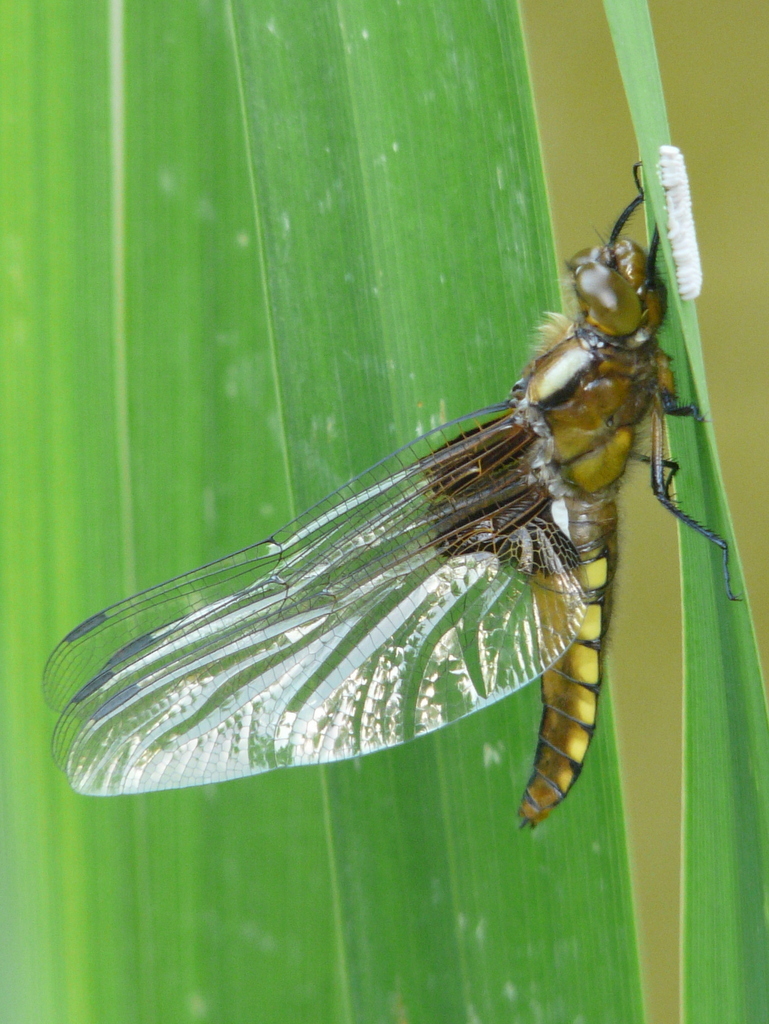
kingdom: Animalia
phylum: Arthropoda
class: Insecta
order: Odonata
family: Libellulidae
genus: Libellula
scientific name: Libellula depressa
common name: Broad-bodied chaser
